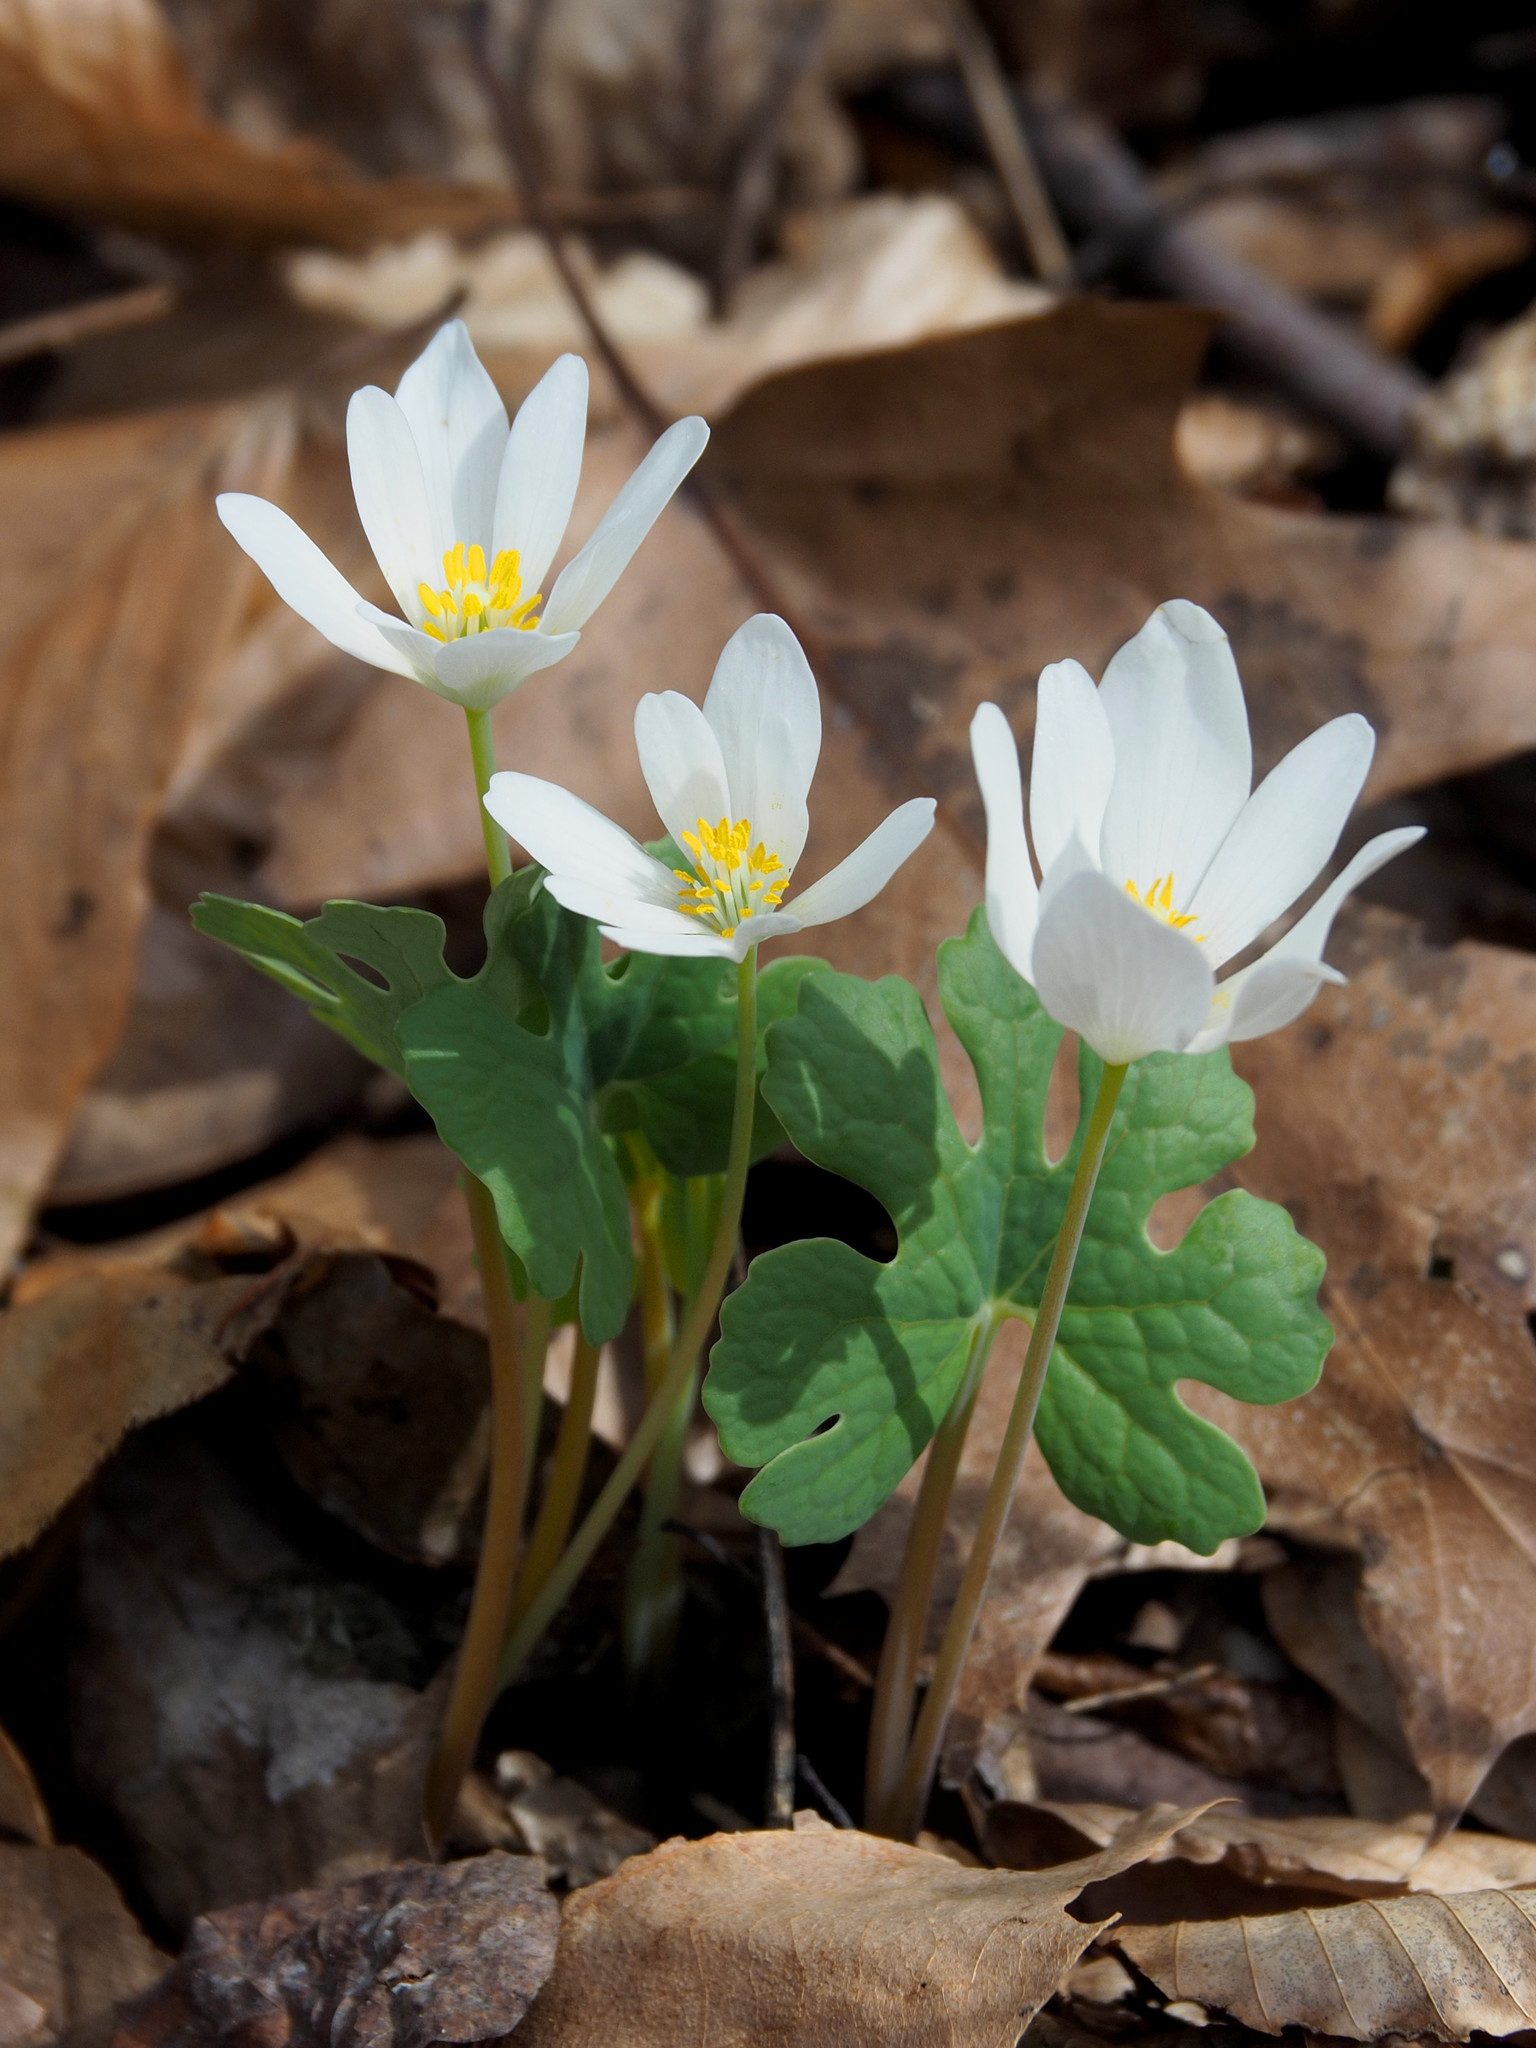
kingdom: Plantae
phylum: Tracheophyta
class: Magnoliopsida
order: Ranunculales
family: Papaveraceae
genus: Sanguinaria
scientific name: Sanguinaria canadensis
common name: Bloodroot
